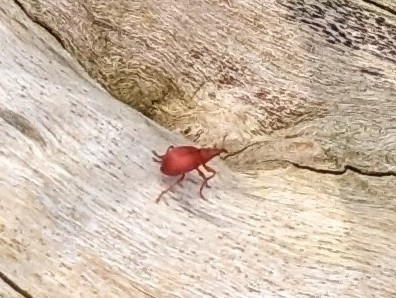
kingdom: Animalia
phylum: Arthropoda
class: Insecta
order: Coleoptera
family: Apionidae
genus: Apion
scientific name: Apion frumentarium
